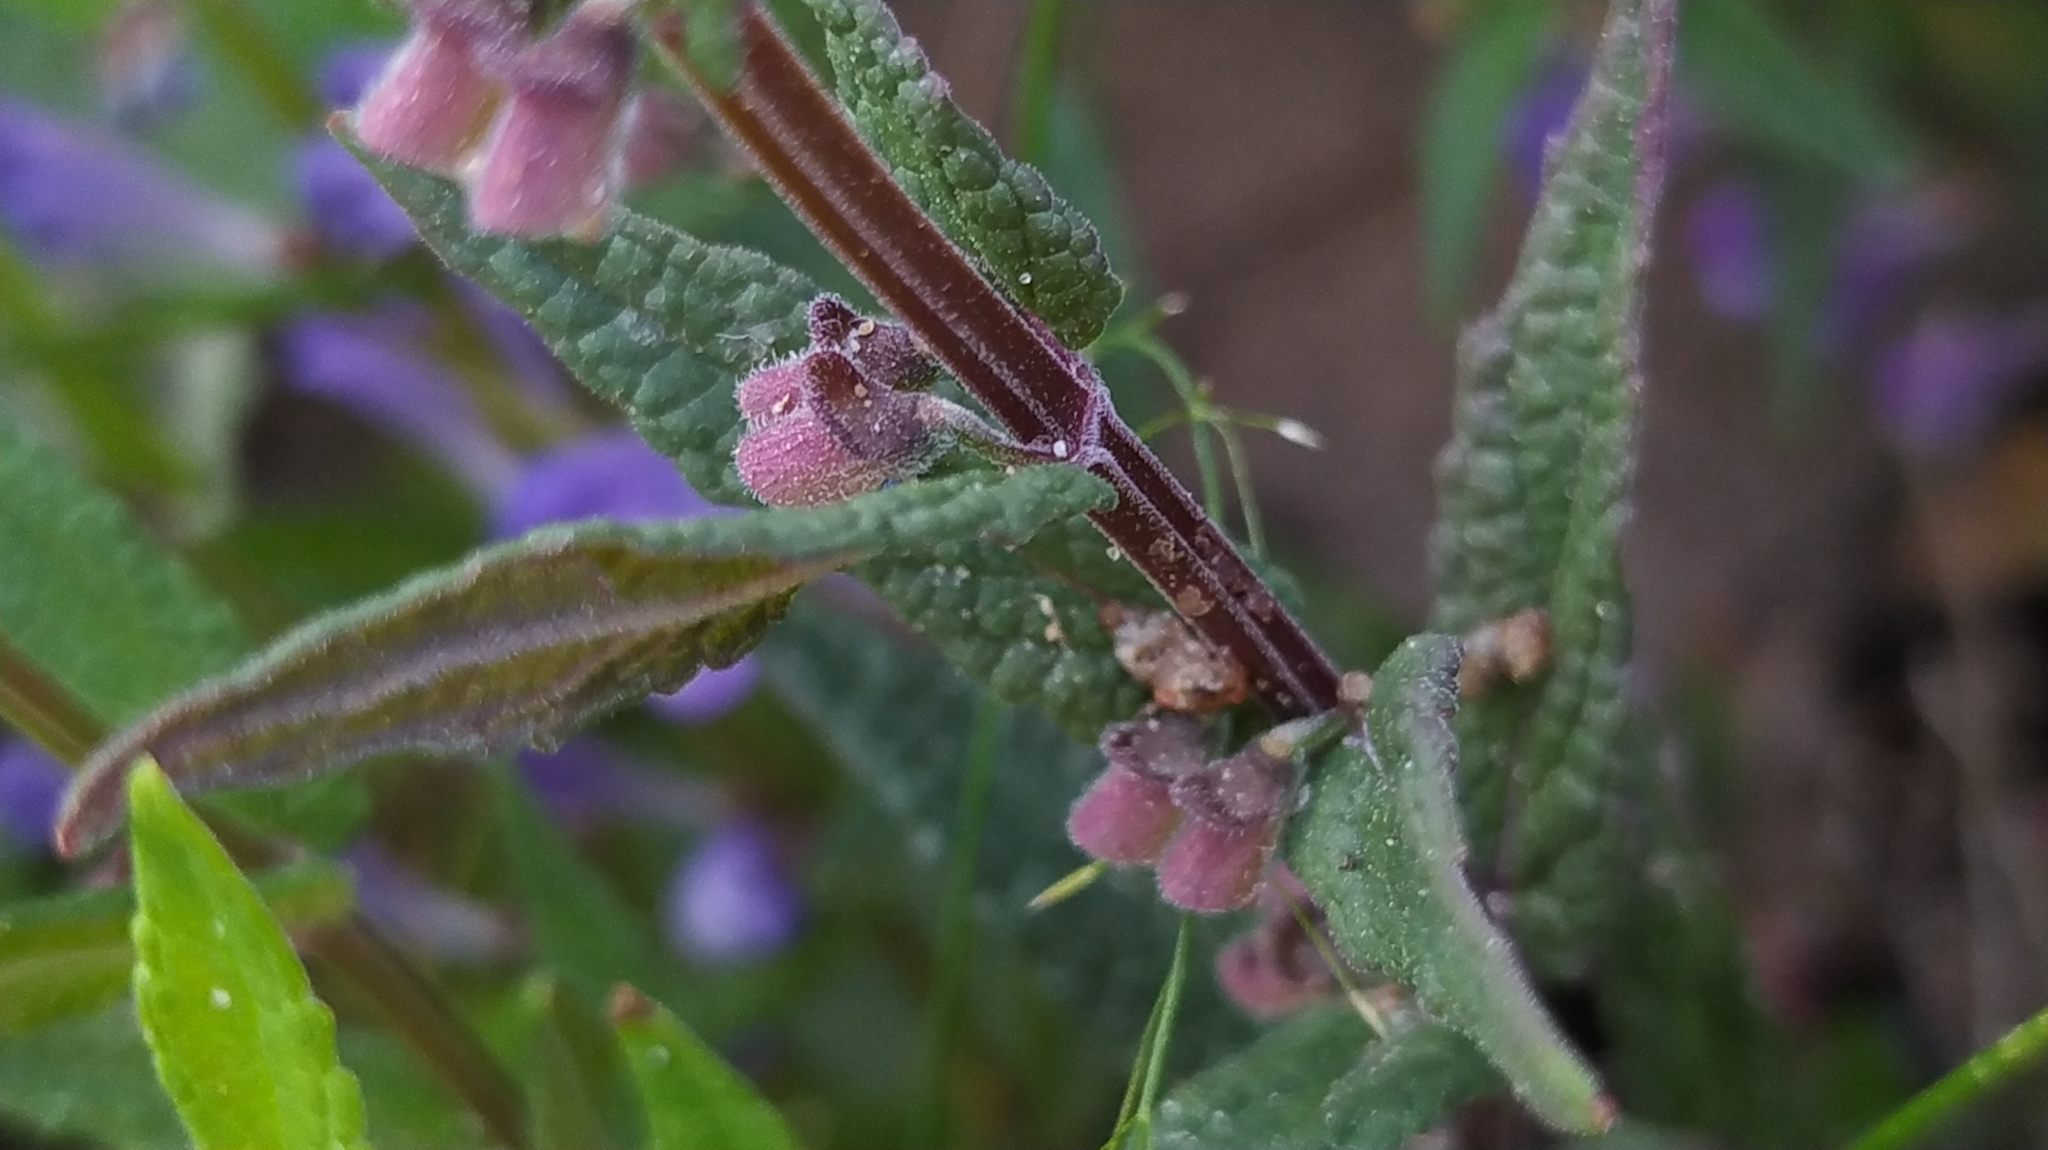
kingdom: Plantae
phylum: Tracheophyta
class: Magnoliopsida
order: Lamiales
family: Lamiaceae
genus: Scutellaria
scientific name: Scutellaria galericulata
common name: Skullcap
